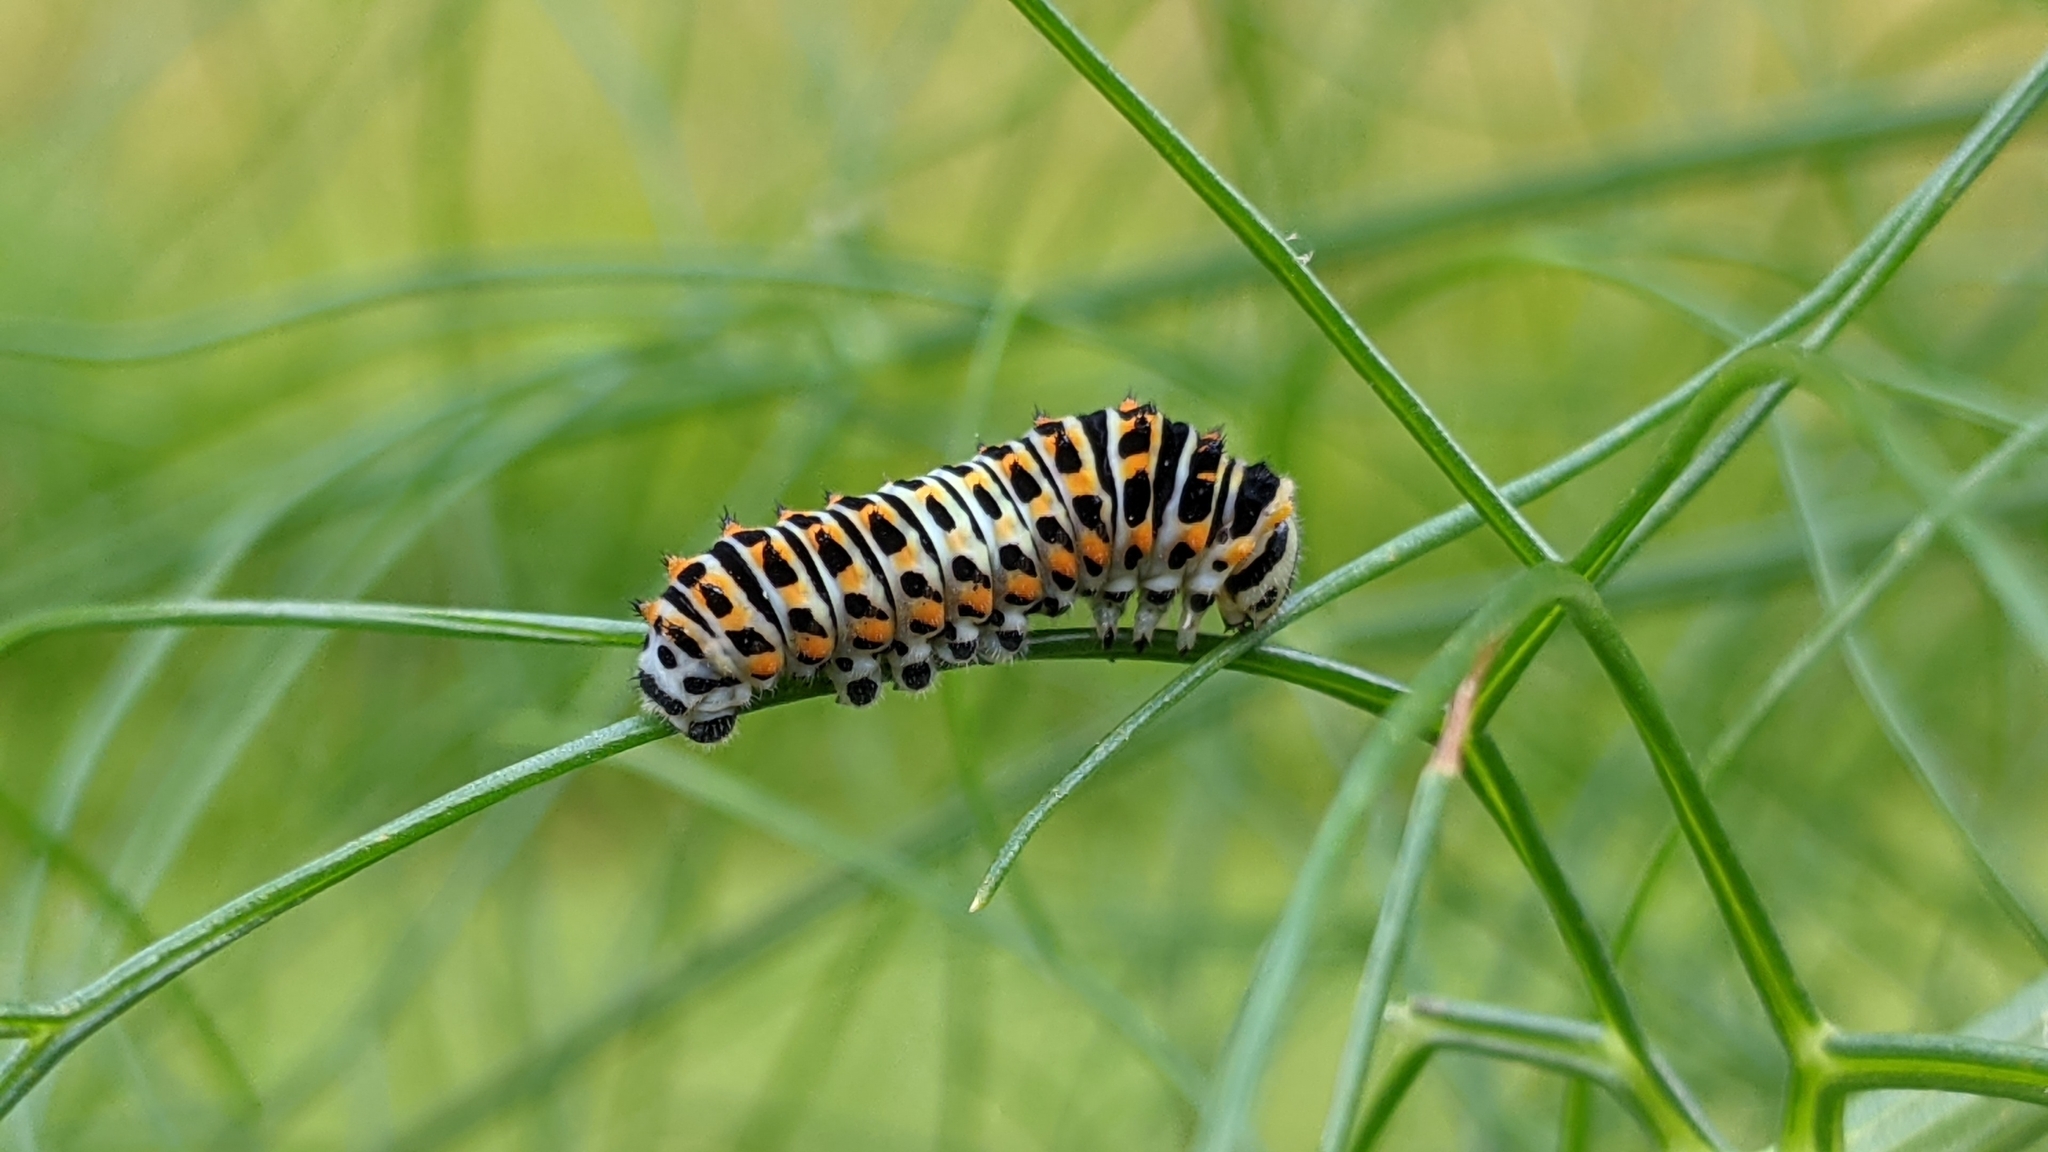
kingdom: Animalia
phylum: Arthropoda
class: Insecta
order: Lepidoptera
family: Papilionidae
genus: Papilio
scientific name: Papilio machaon
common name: Swallowtail
